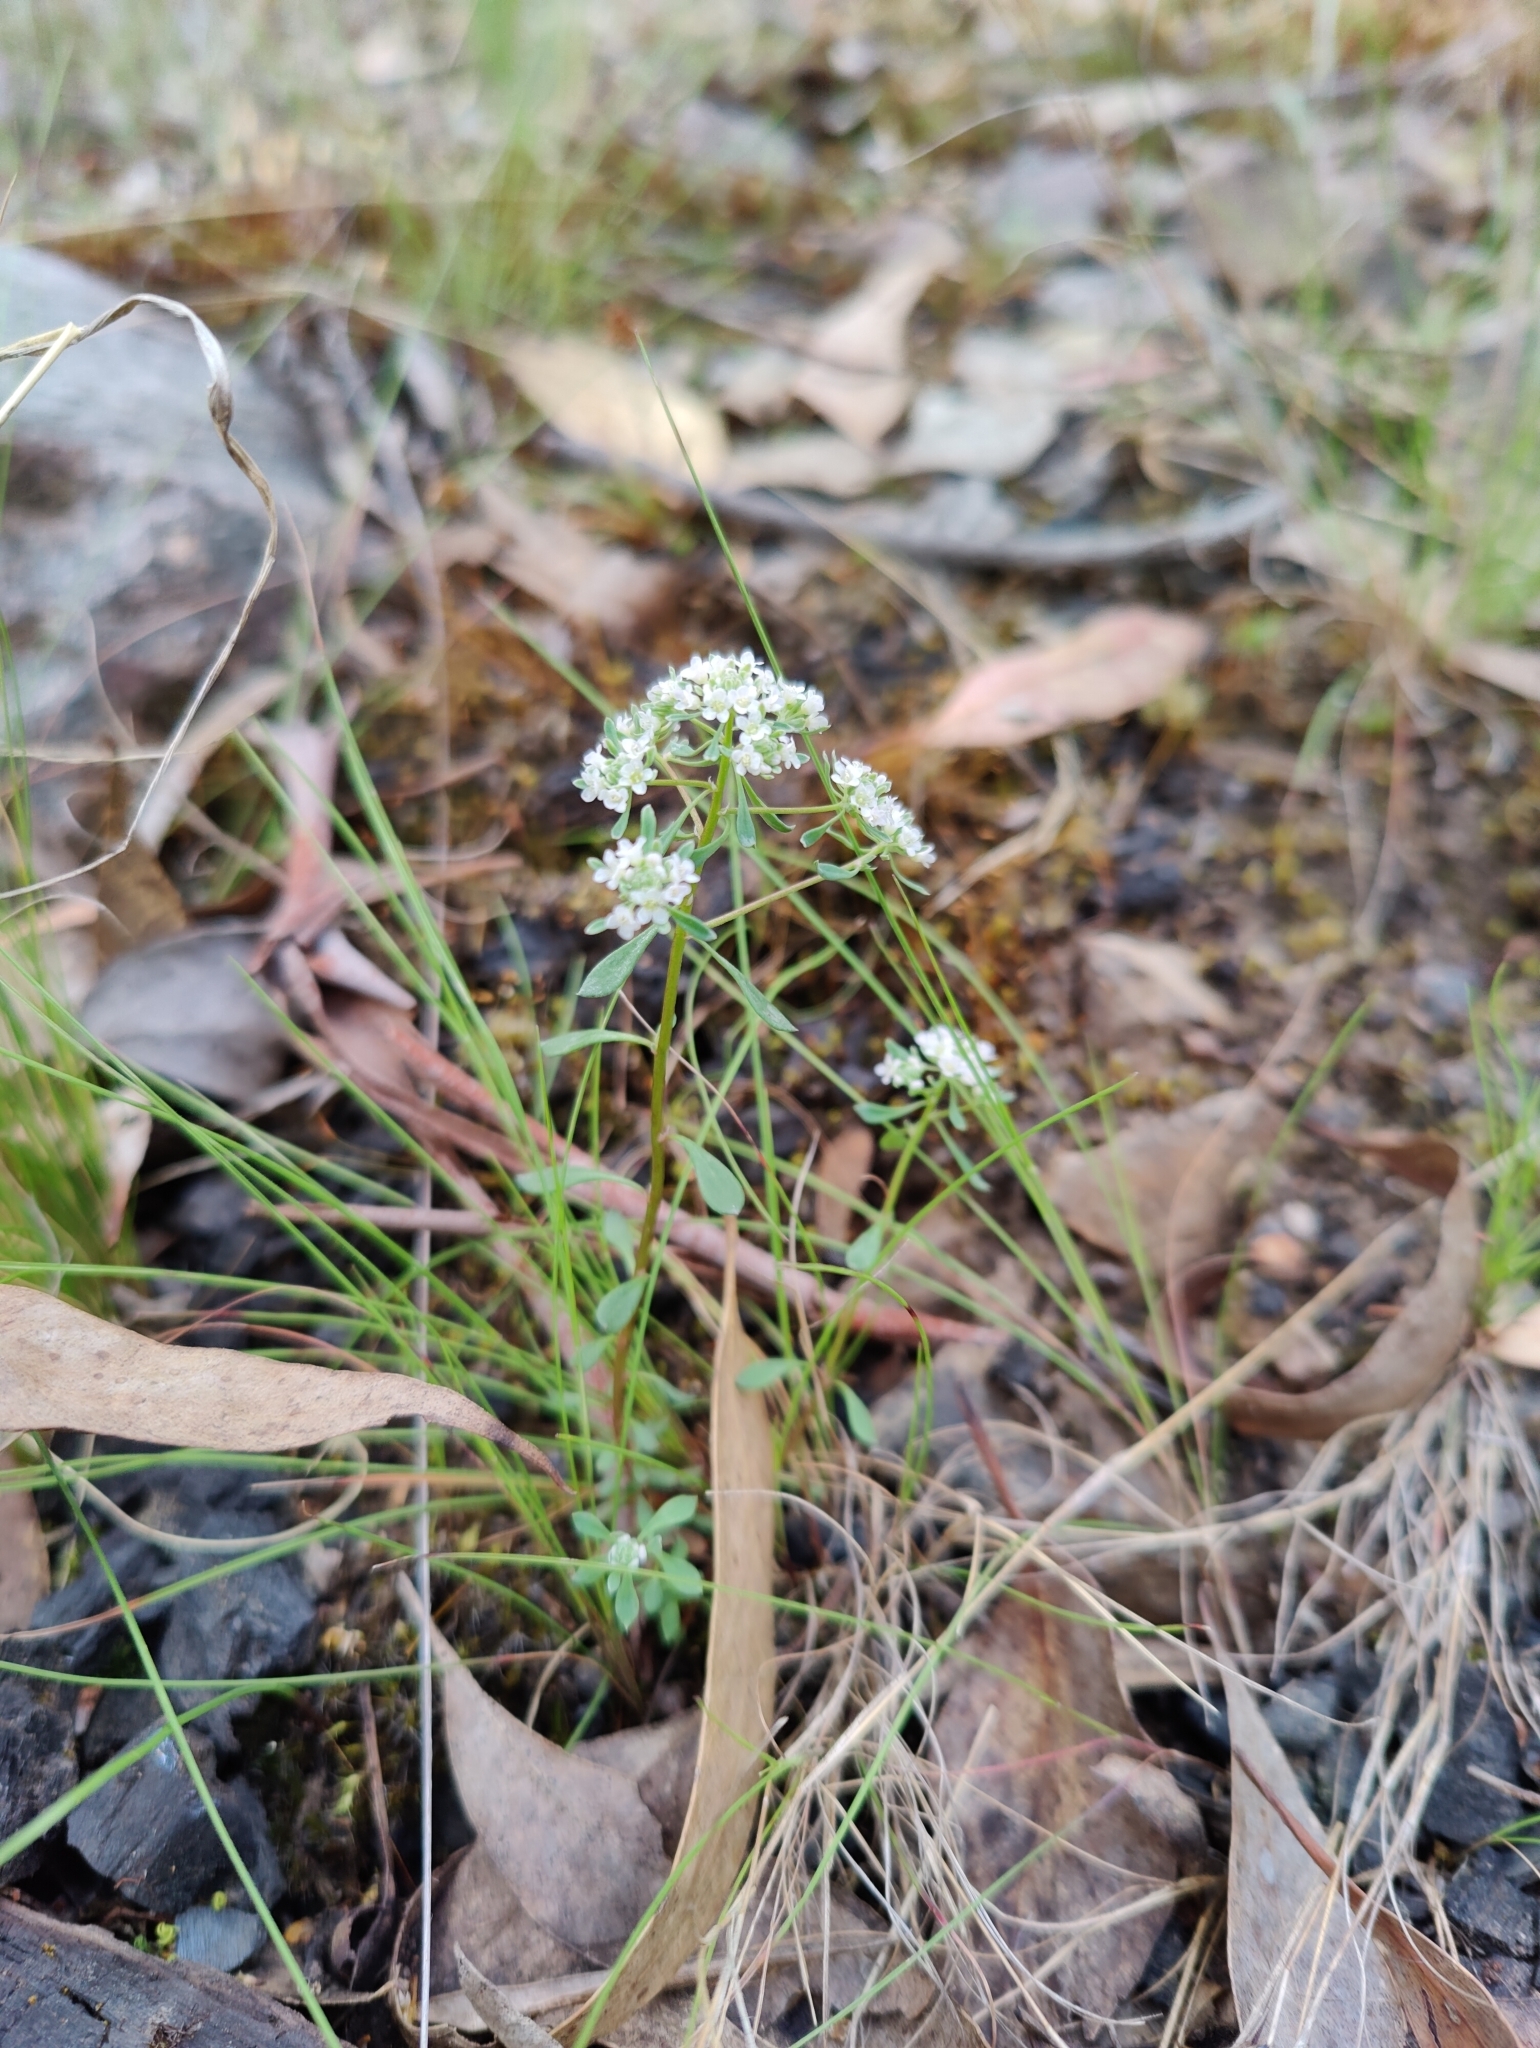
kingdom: Plantae
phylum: Tracheophyta
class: Magnoliopsida
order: Malpighiales
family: Phyllanthaceae
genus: Poranthera
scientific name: Poranthera microphylla
